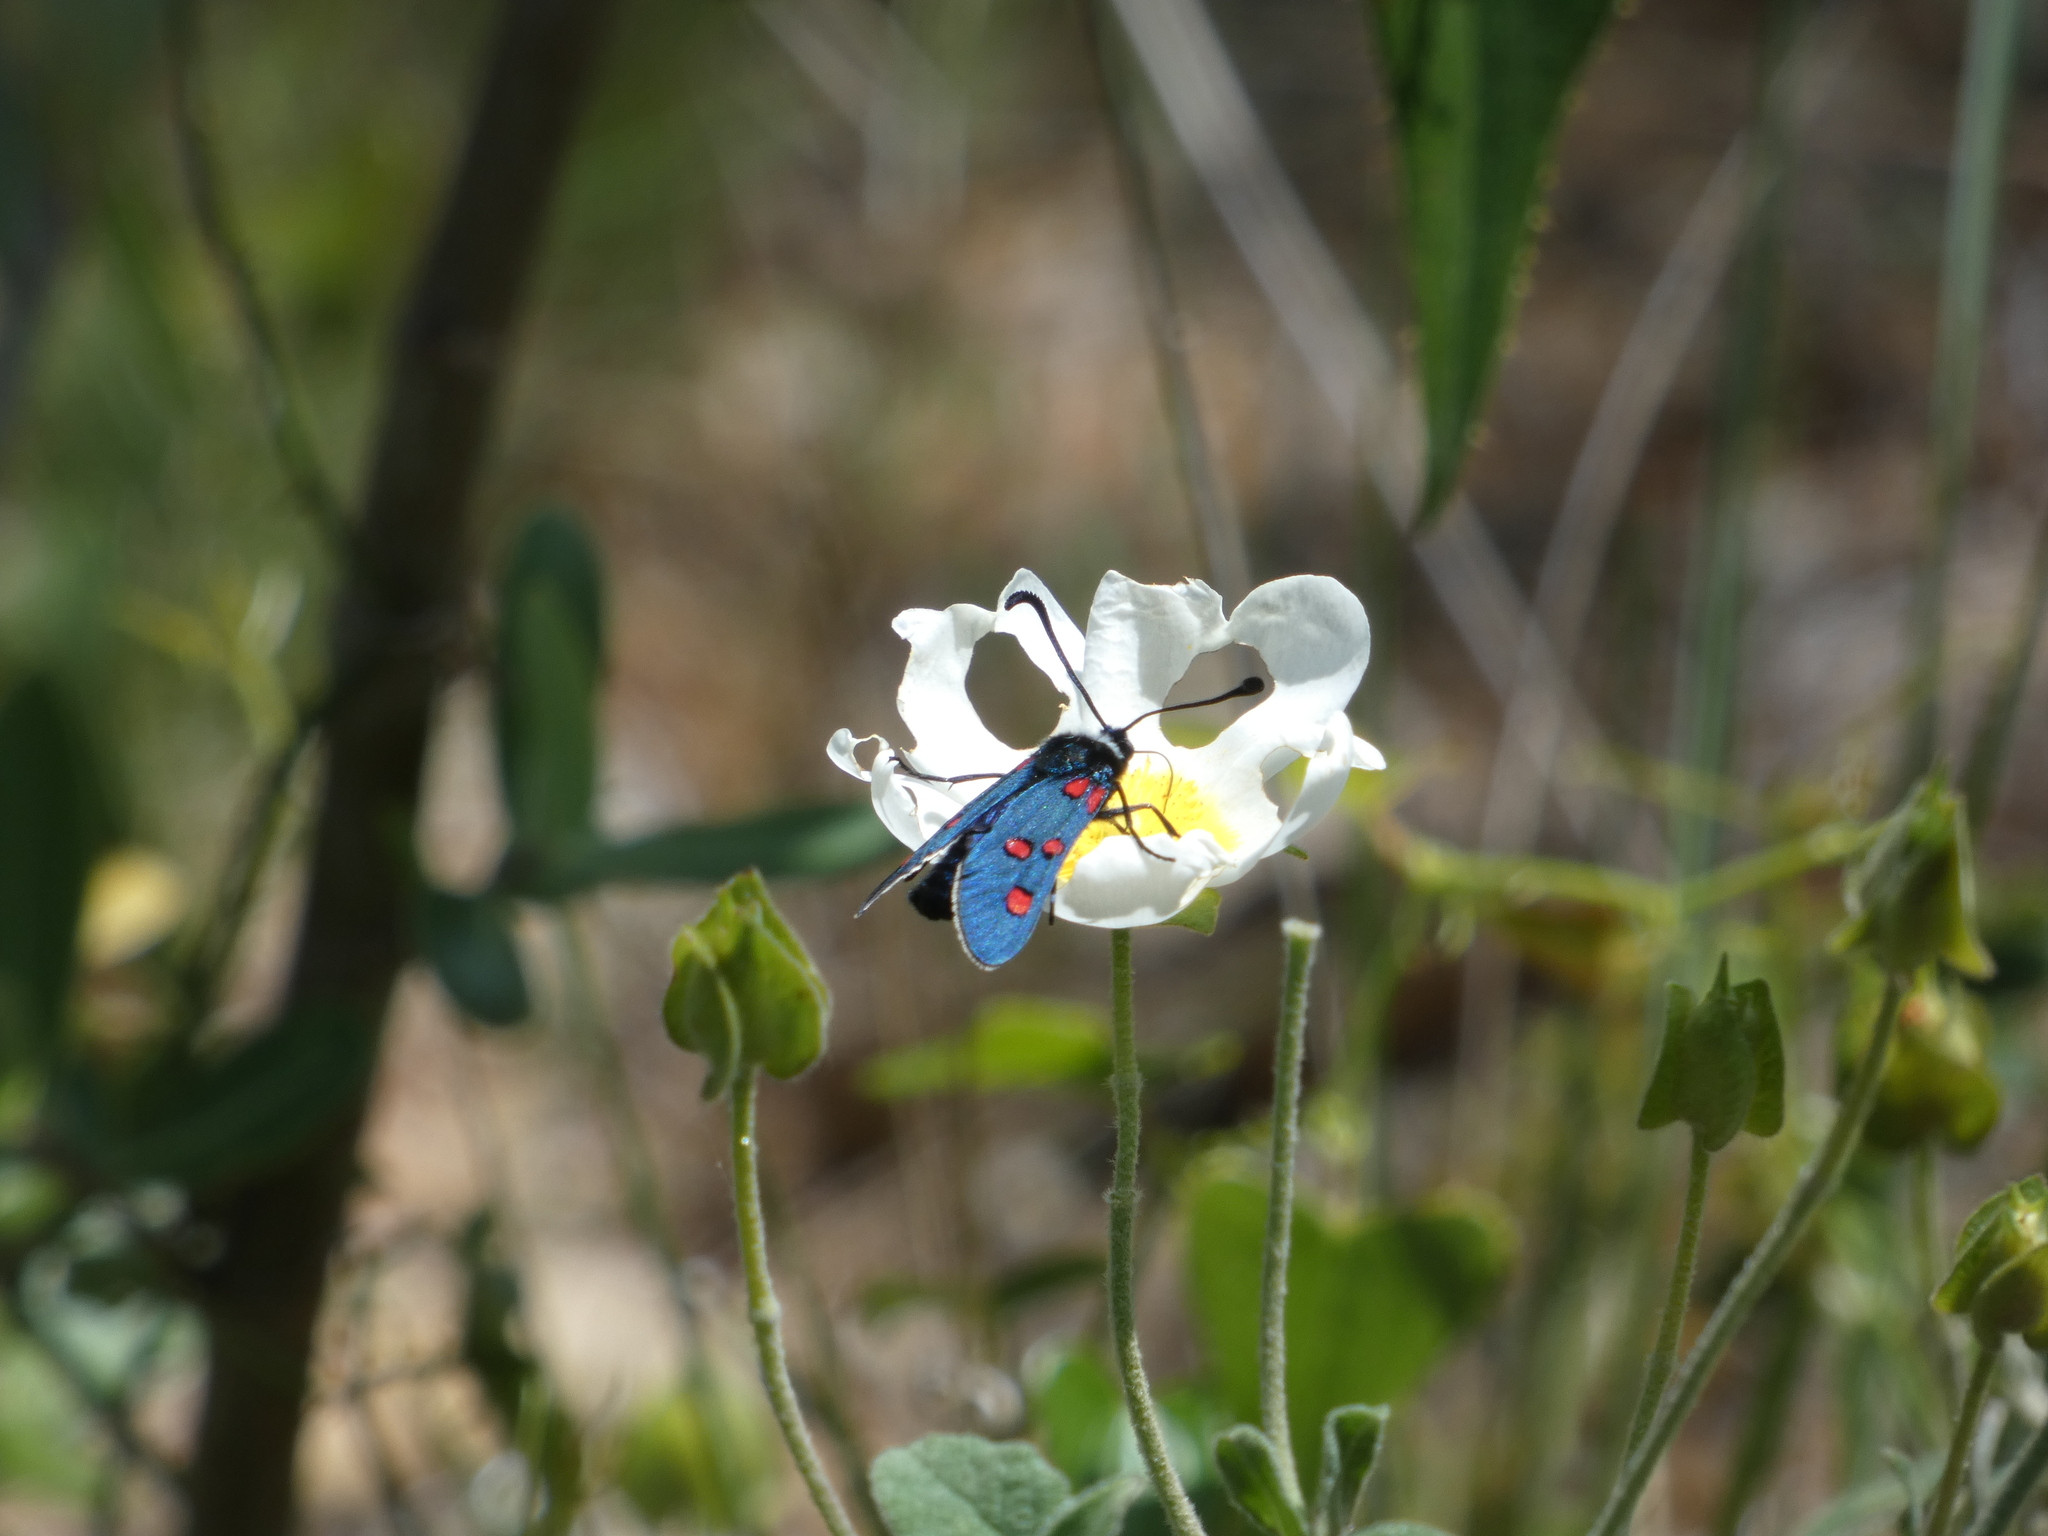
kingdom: Animalia
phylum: Arthropoda
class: Insecta
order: Lepidoptera
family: Zygaenidae
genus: Zygaena
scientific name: Zygaena lavandulae
